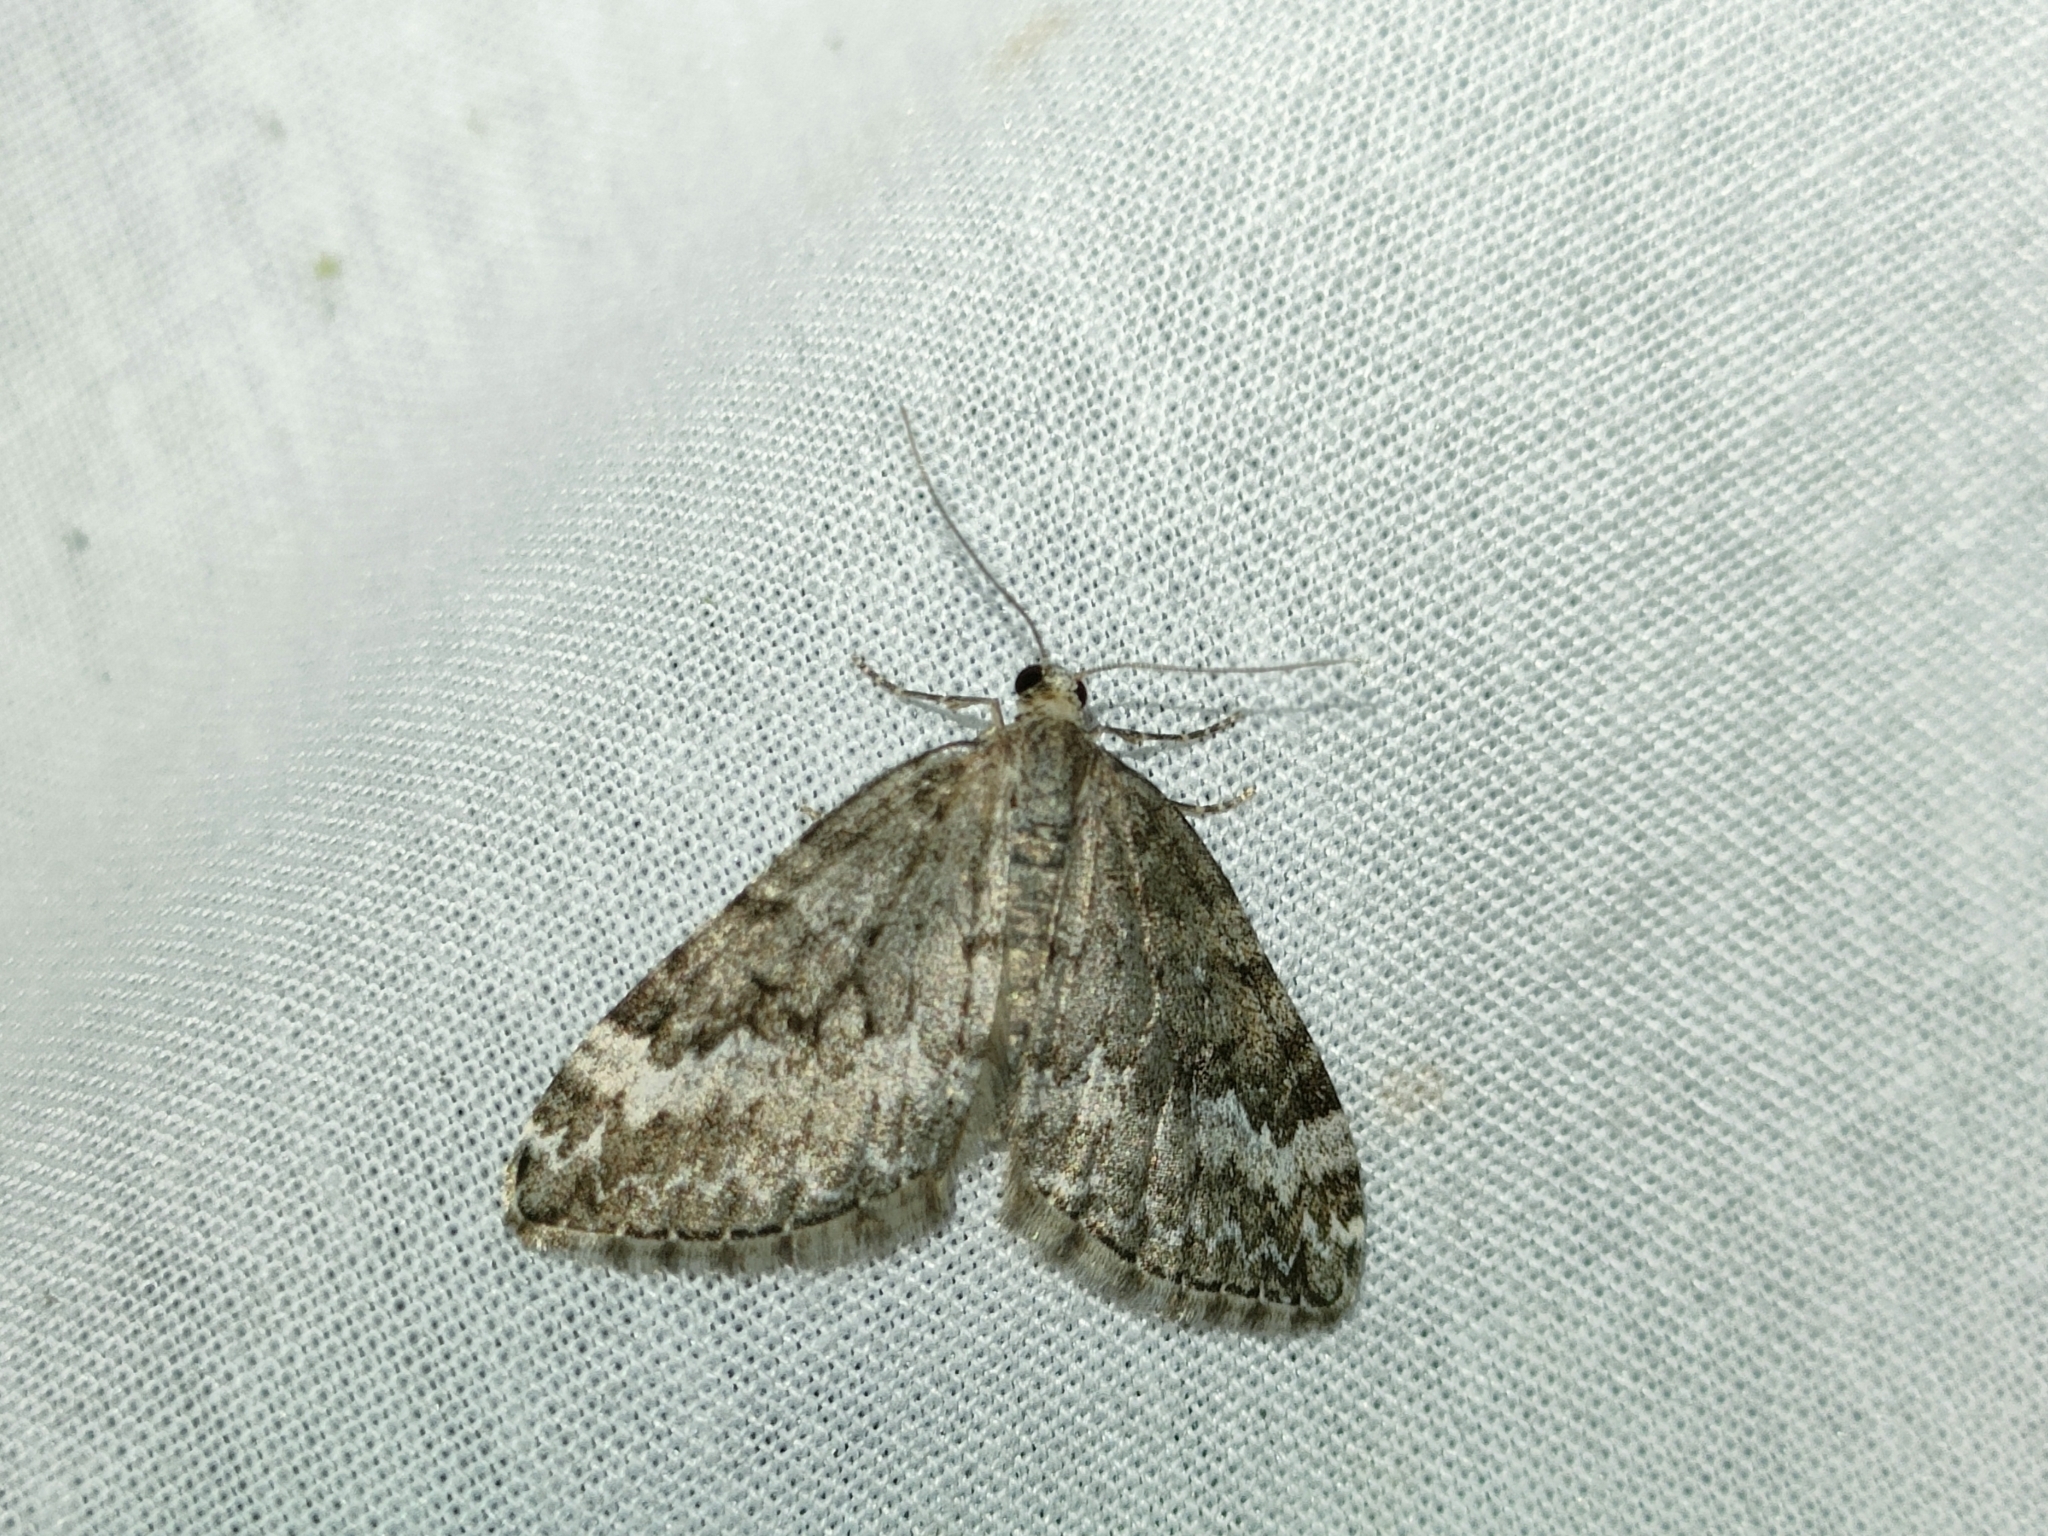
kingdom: Animalia
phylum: Arthropoda
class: Insecta
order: Lepidoptera
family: Geometridae
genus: Perizoma
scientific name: Perizoma hydrata
